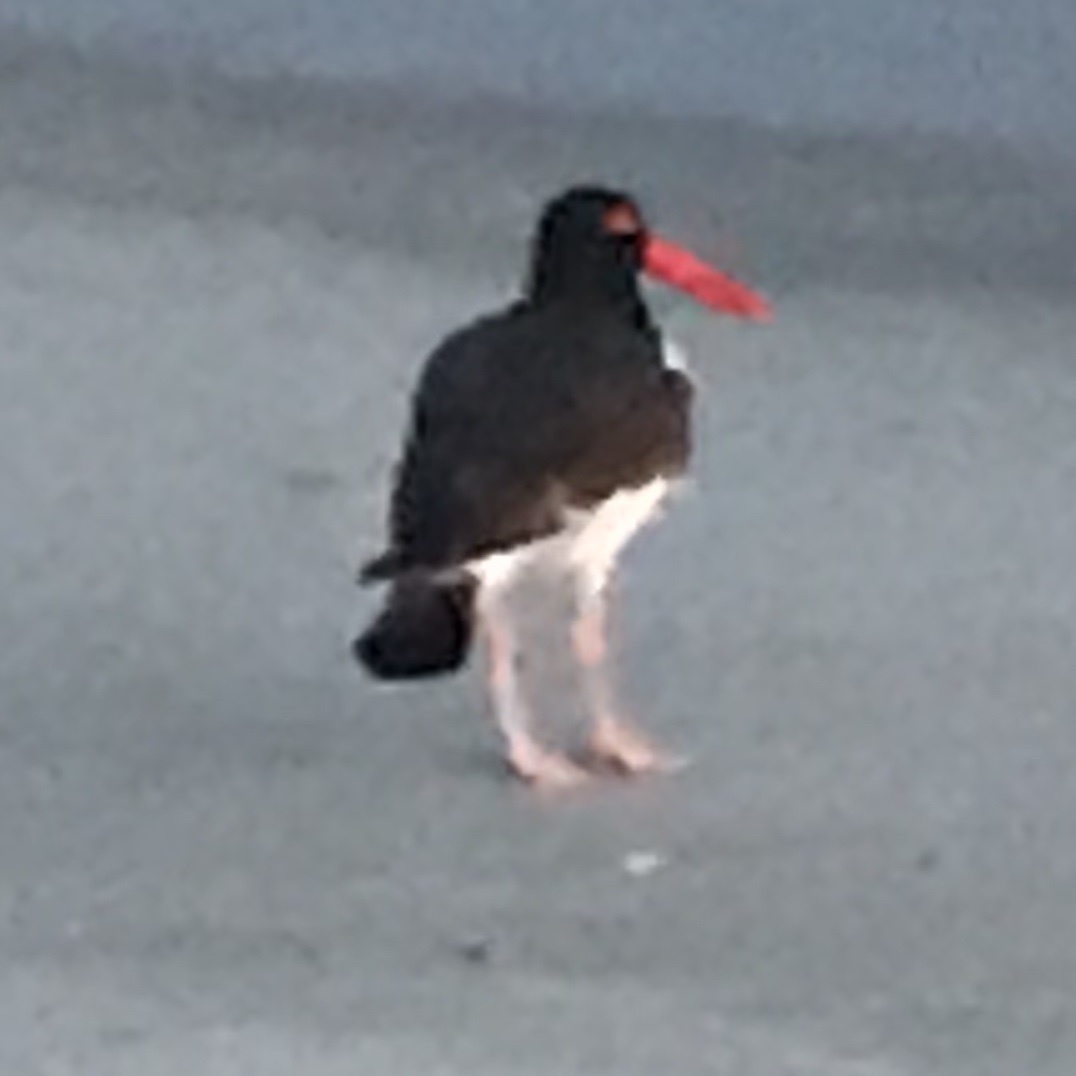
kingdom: Animalia
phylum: Chordata
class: Aves
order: Charadriiformes
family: Haematopodidae
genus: Haematopus
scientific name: Haematopus palliatus
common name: American oystercatcher
